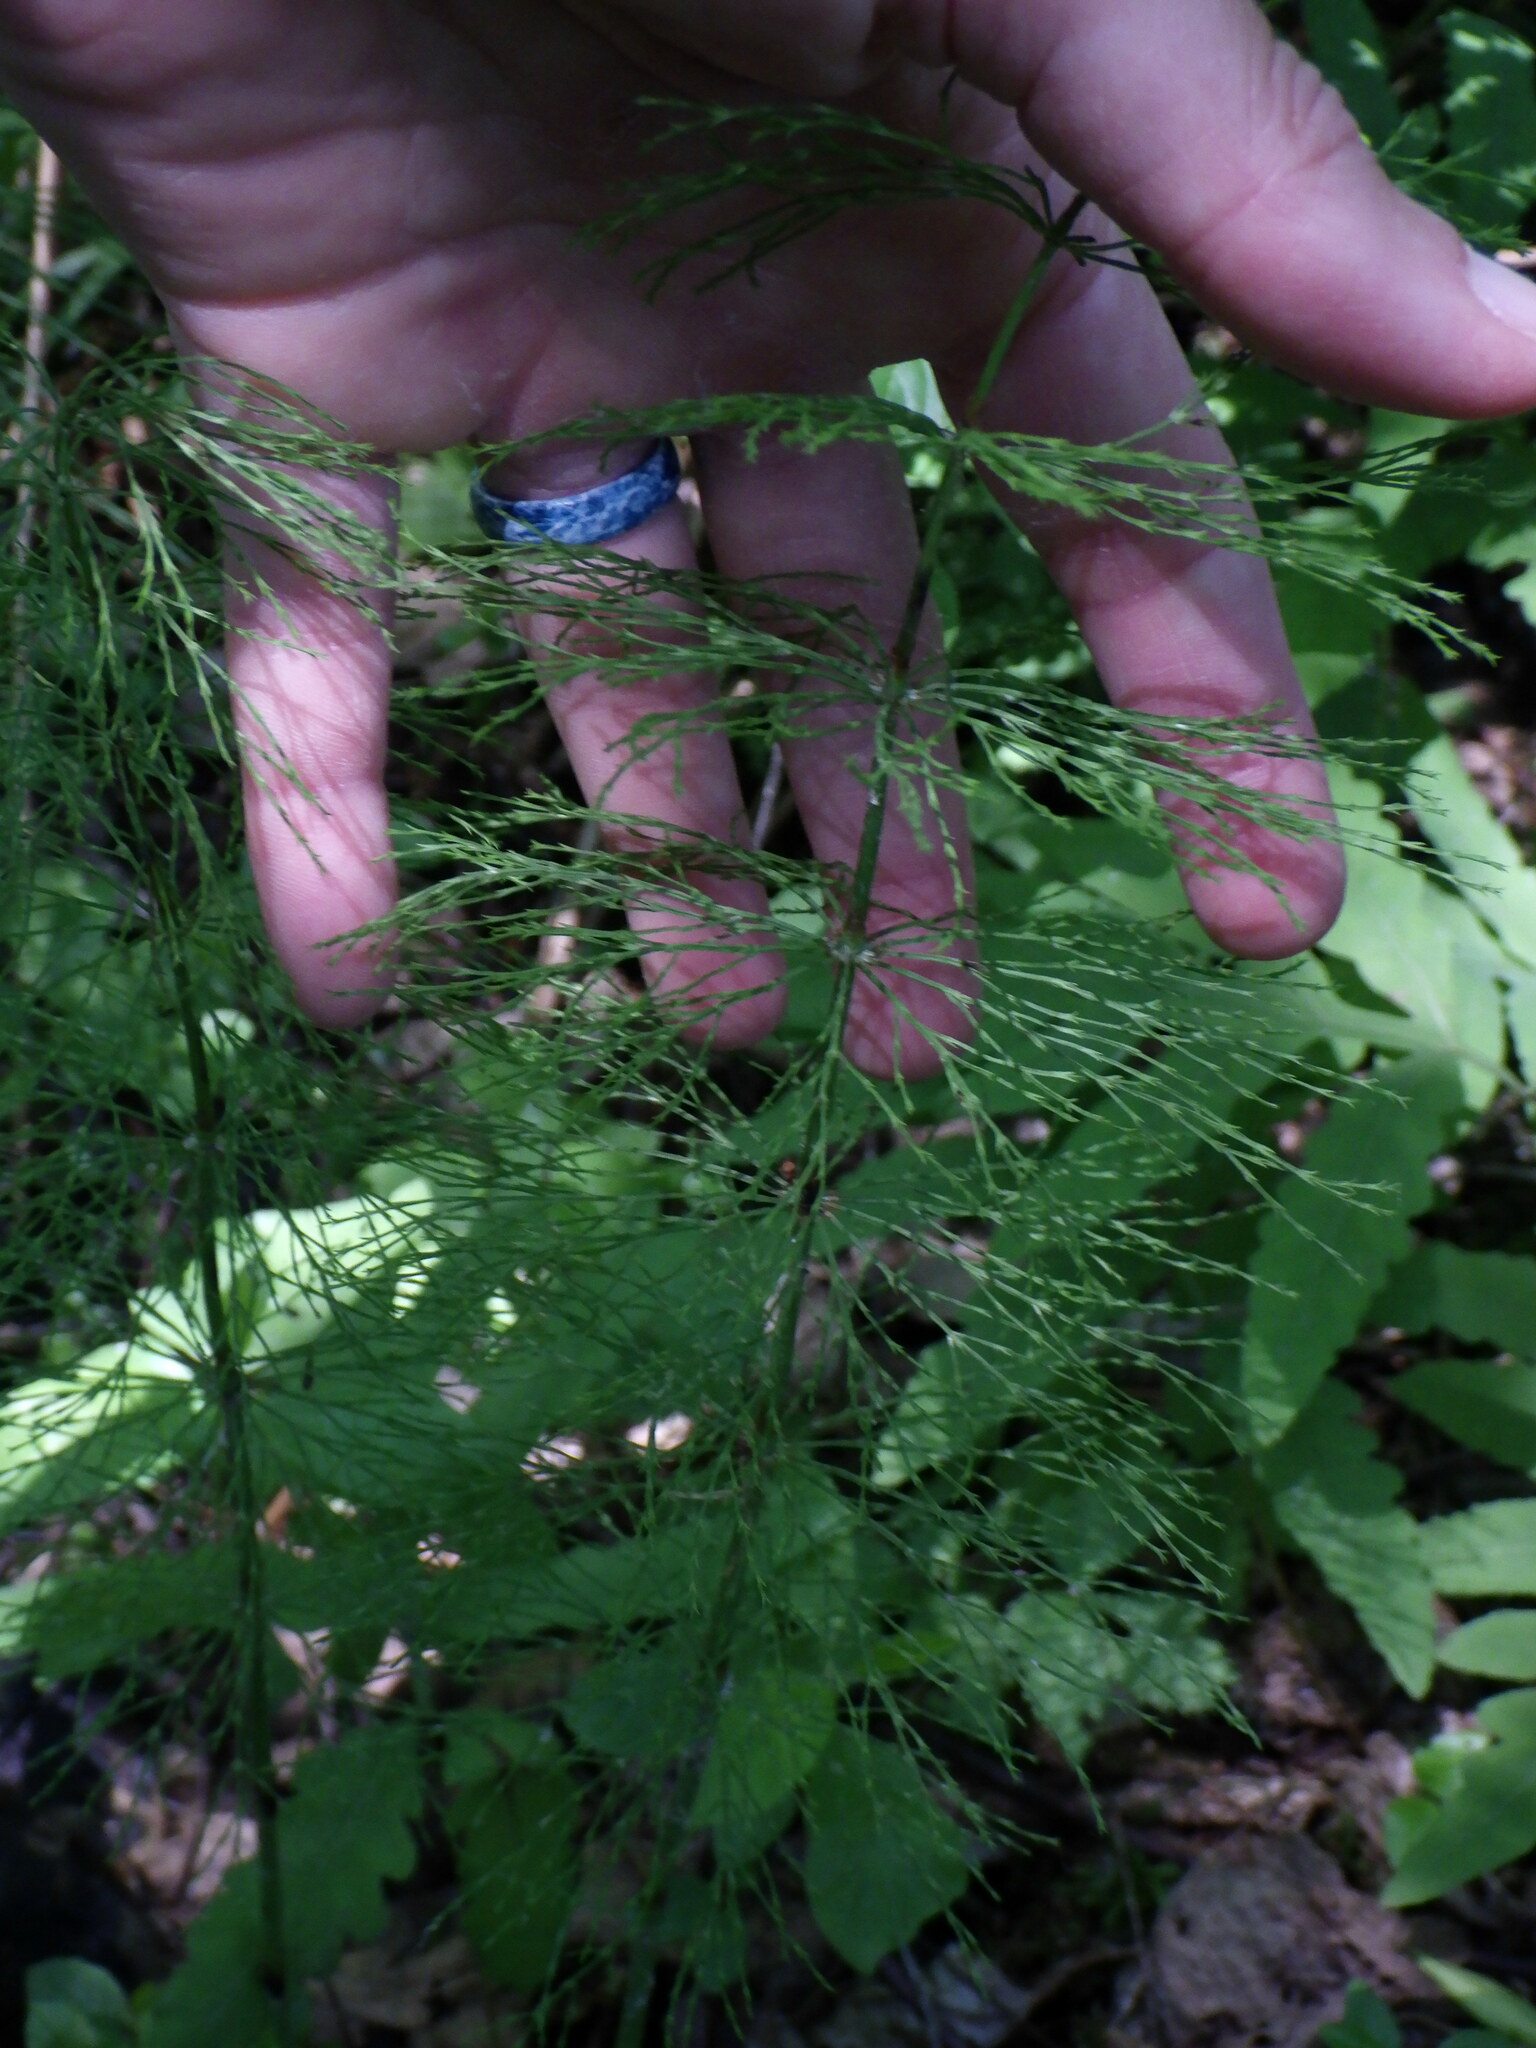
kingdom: Plantae
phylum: Tracheophyta
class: Polypodiopsida
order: Equisetales
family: Equisetaceae
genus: Equisetum
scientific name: Equisetum sylvaticum
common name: Wood horsetail
